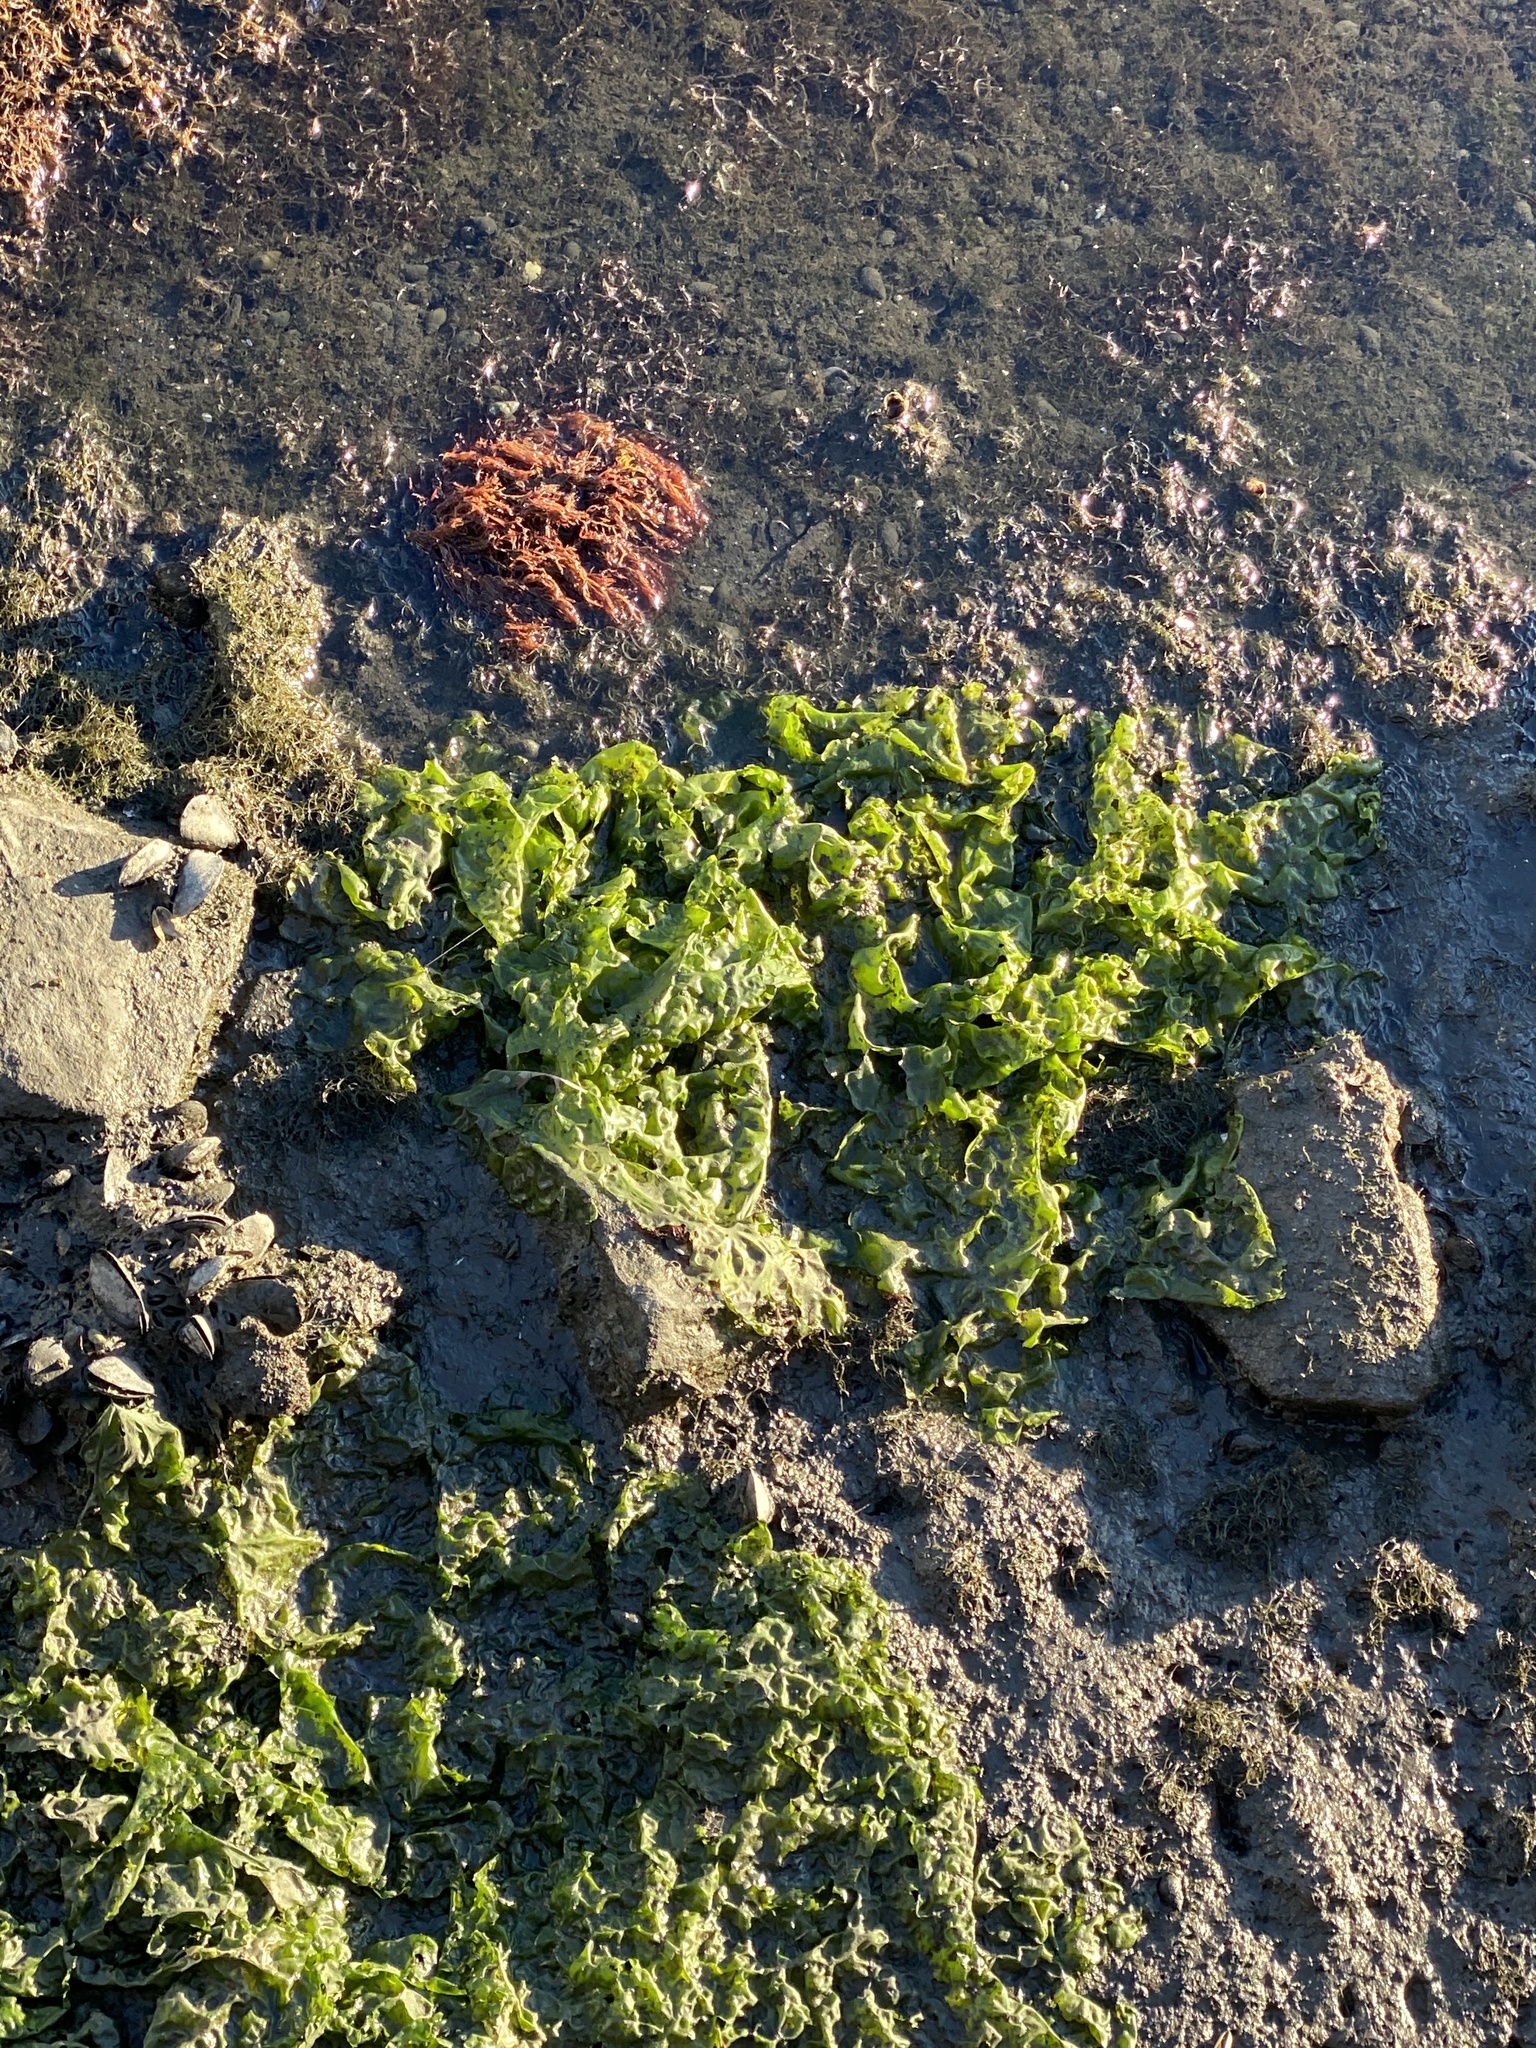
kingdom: Plantae
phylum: Chlorophyta
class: Ulvophyceae
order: Ulvales
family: Ulvaceae
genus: Ulva
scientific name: Ulva lactuca
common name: Sea lettuce
